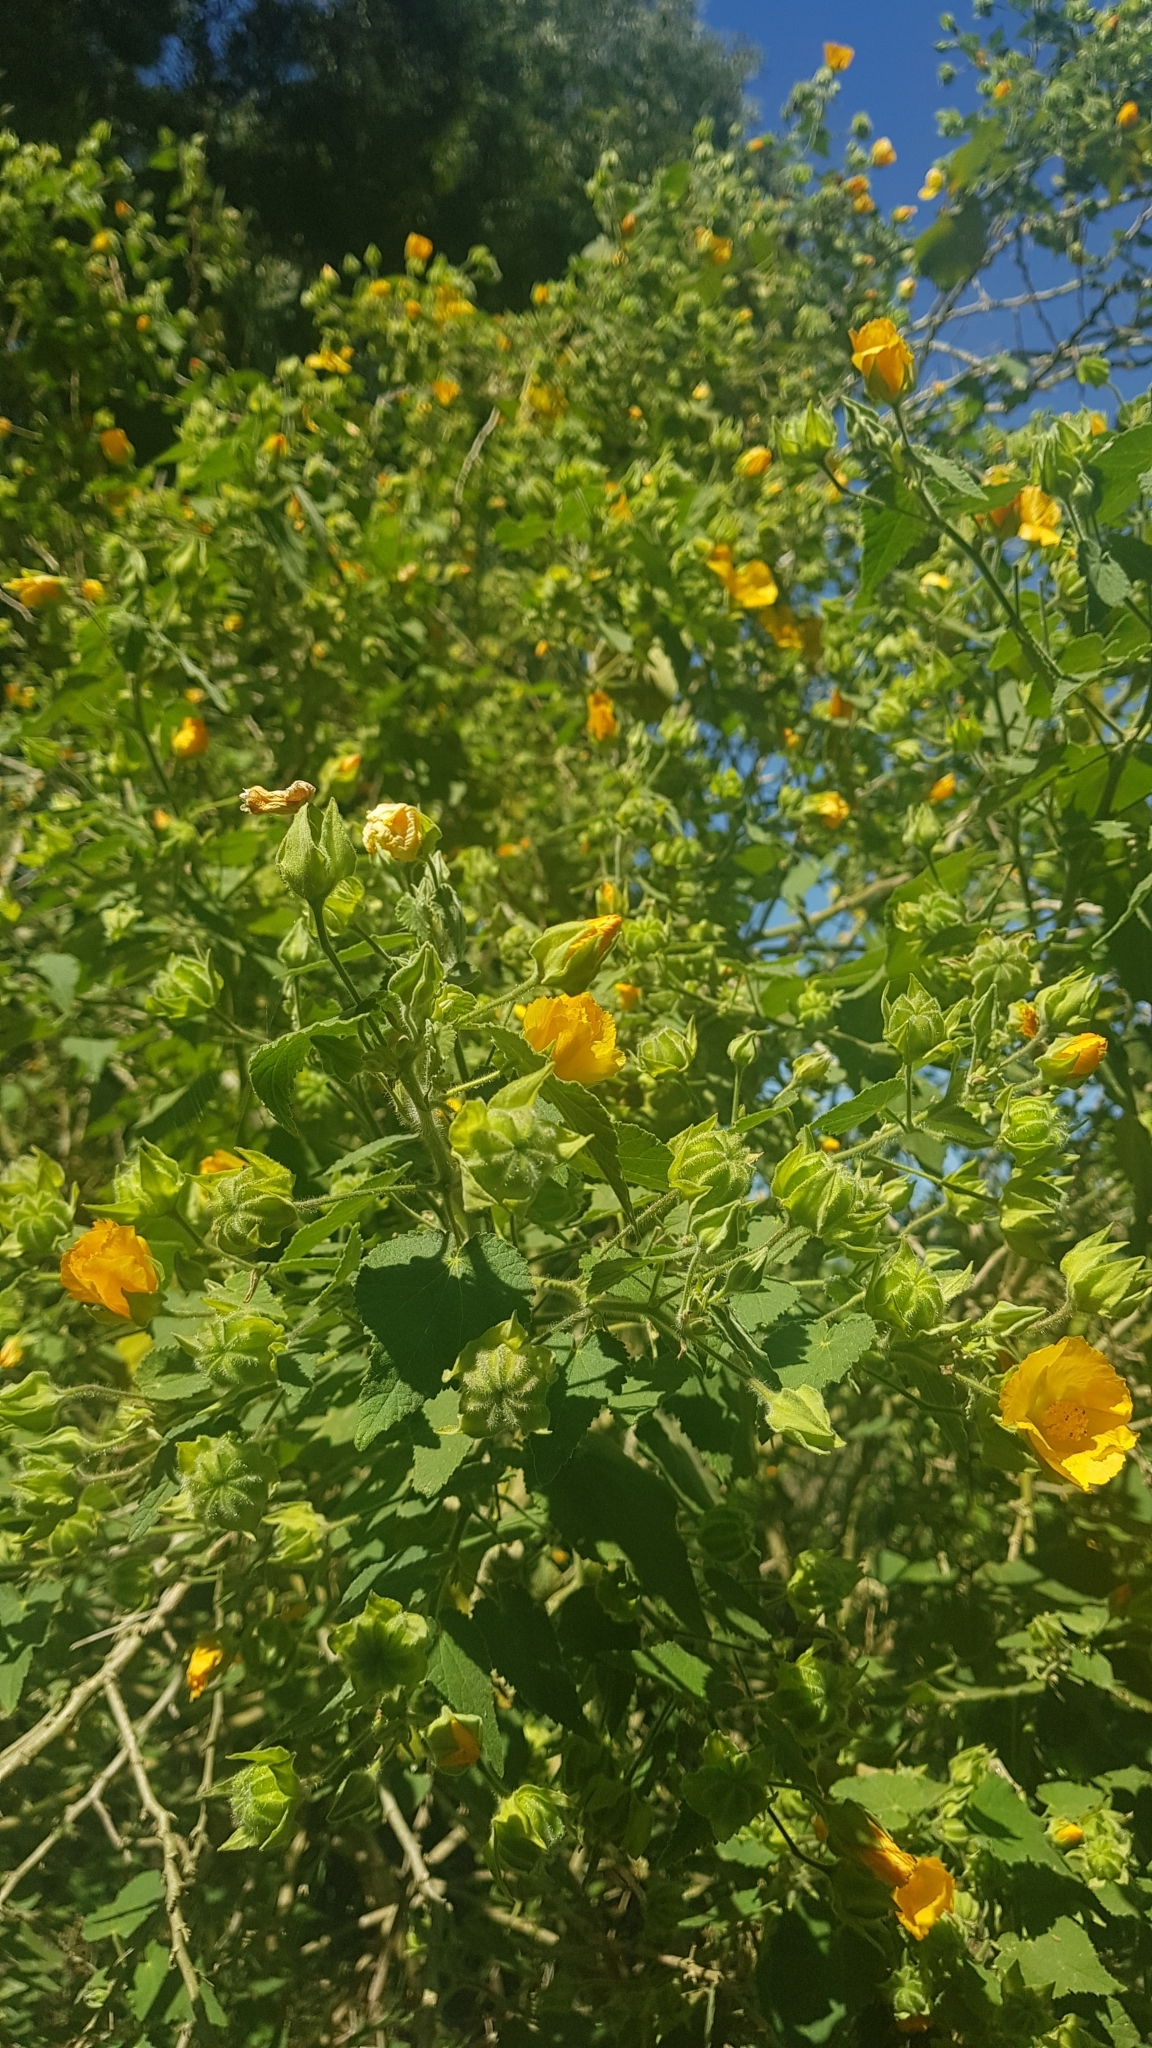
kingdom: Plantae
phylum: Tracheophyta
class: Magnoliopsida
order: Malvales
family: Malvaceae
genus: Abutilon
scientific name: Abutilon grandifolium
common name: Hairy abutilon
